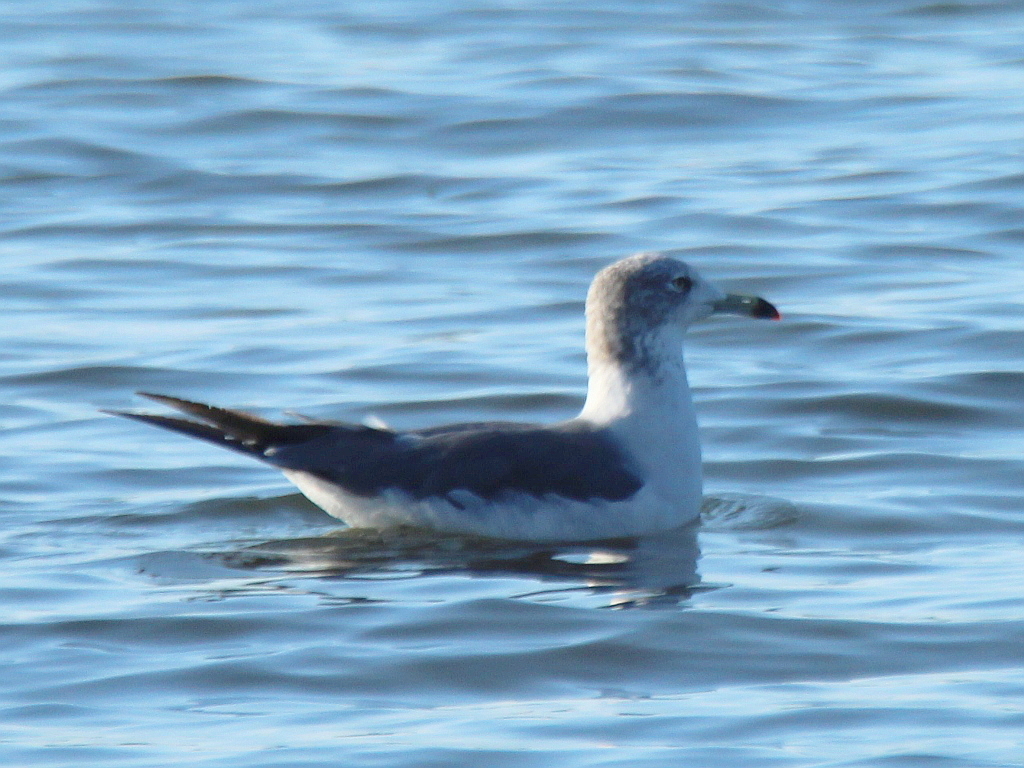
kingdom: Animalia
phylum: Chordata
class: Aves
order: Charadriiformes
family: Laridae
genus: Larus
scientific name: Larus crassirostris
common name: Black-tailed gull
